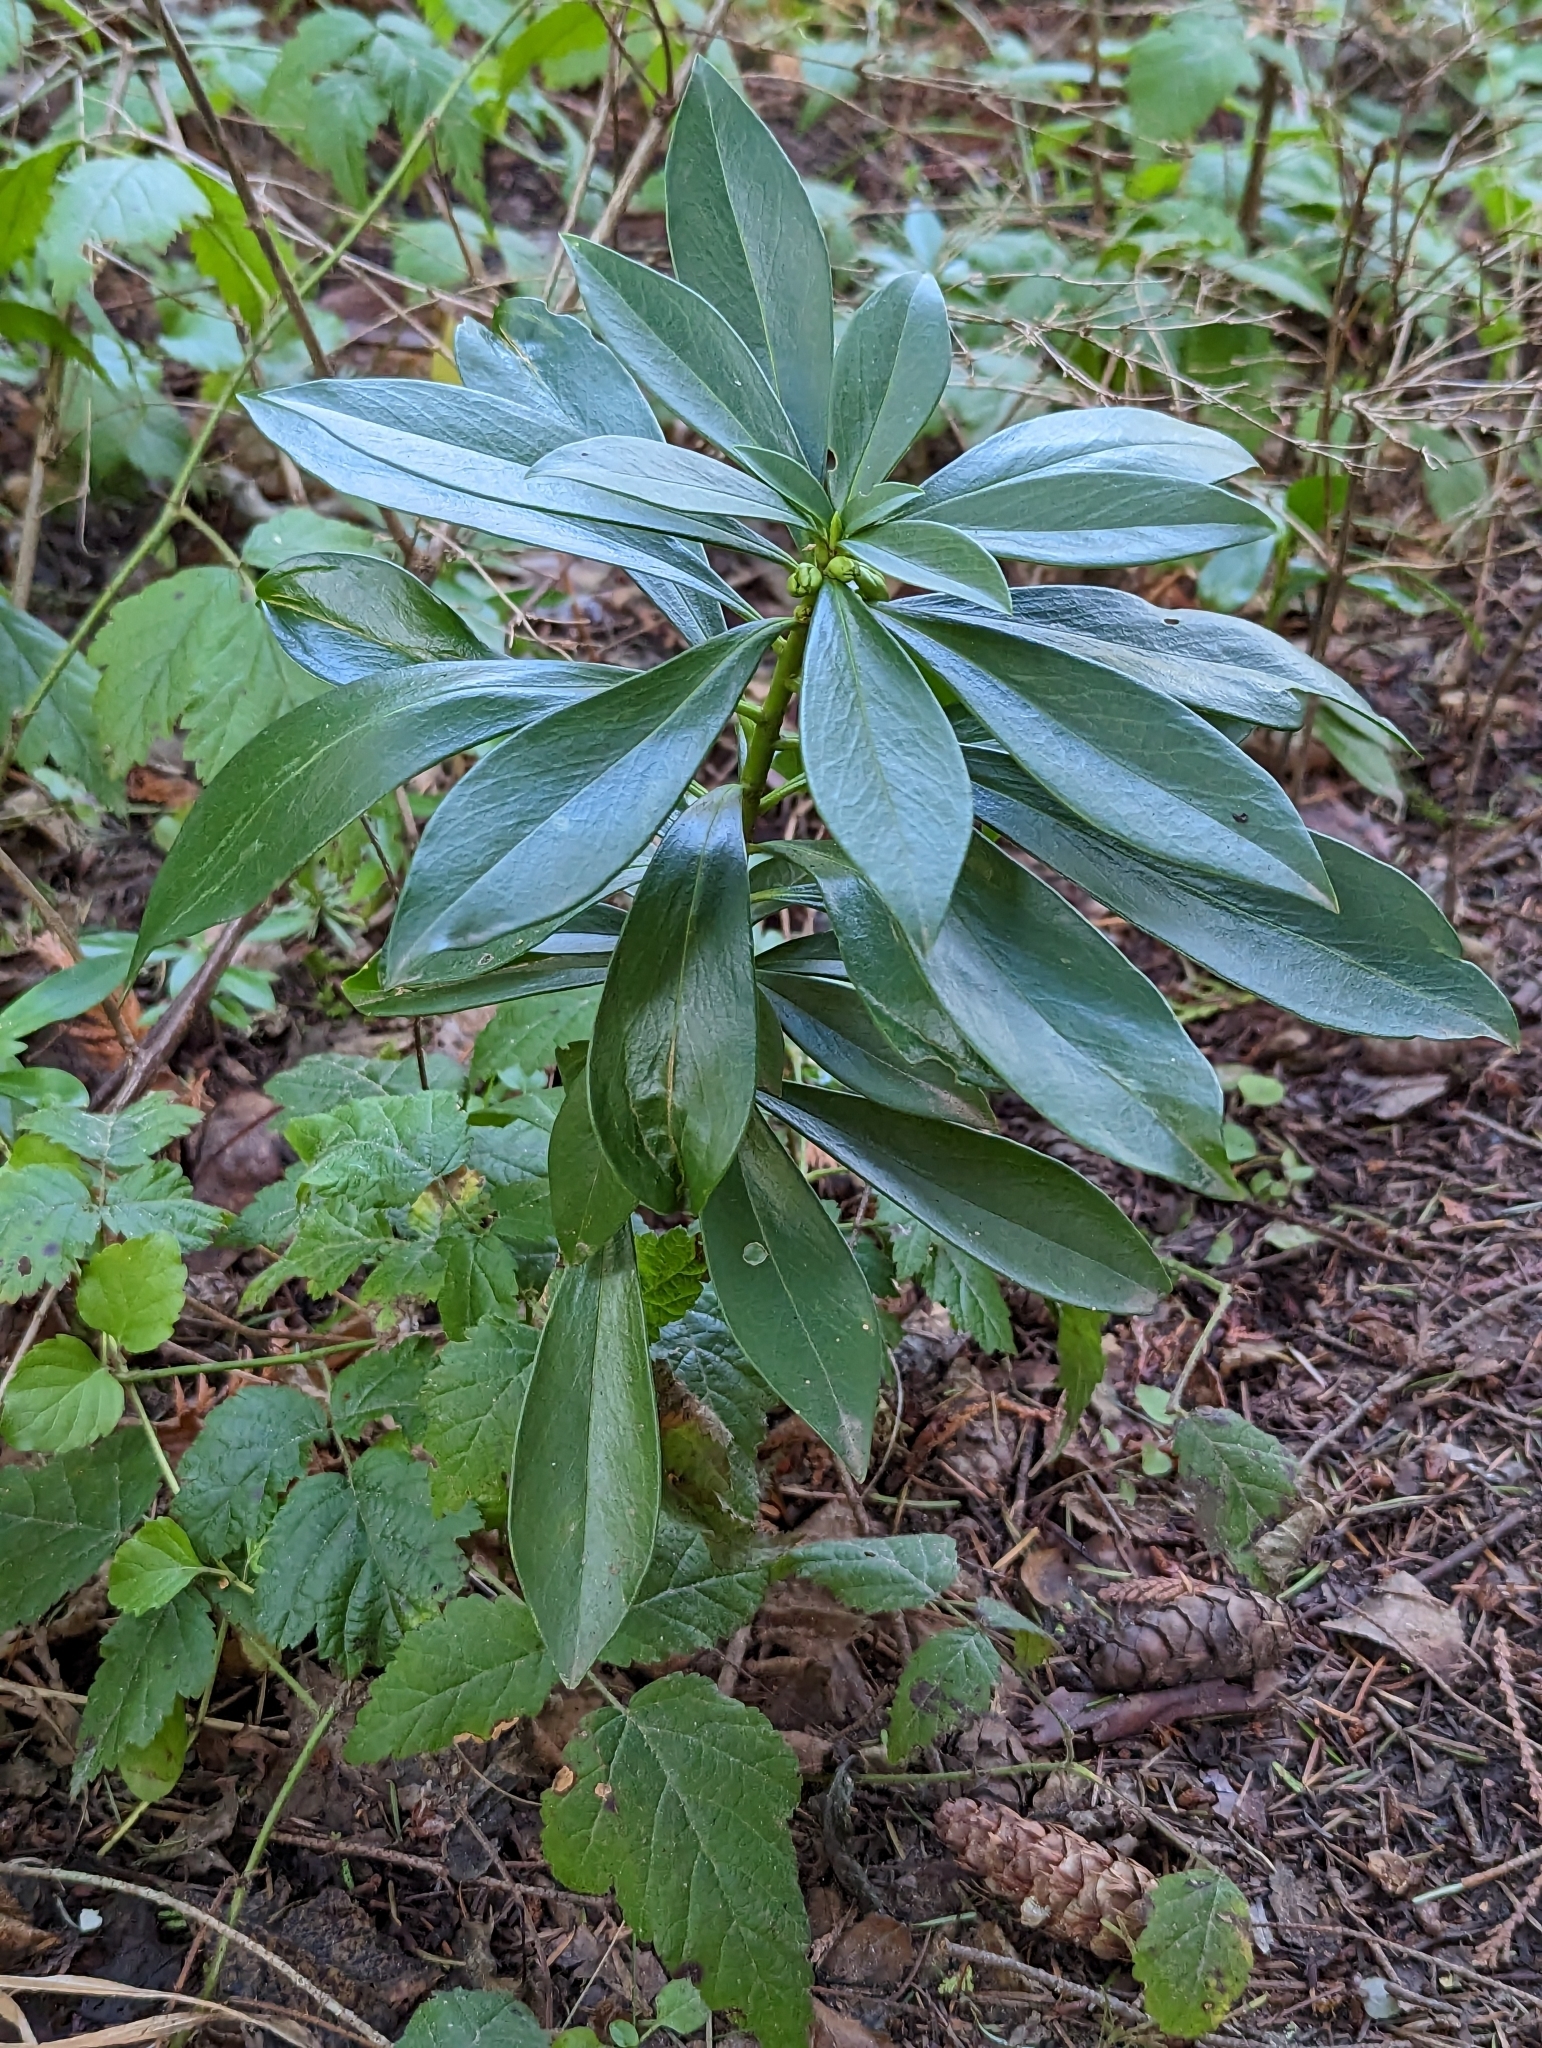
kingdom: Plantae
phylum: Tracheophyta
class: Magnoliopsida
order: Malvales
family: Thymelaeaceae
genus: Daphne
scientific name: Daphne laureola
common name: Spurge-laurel
